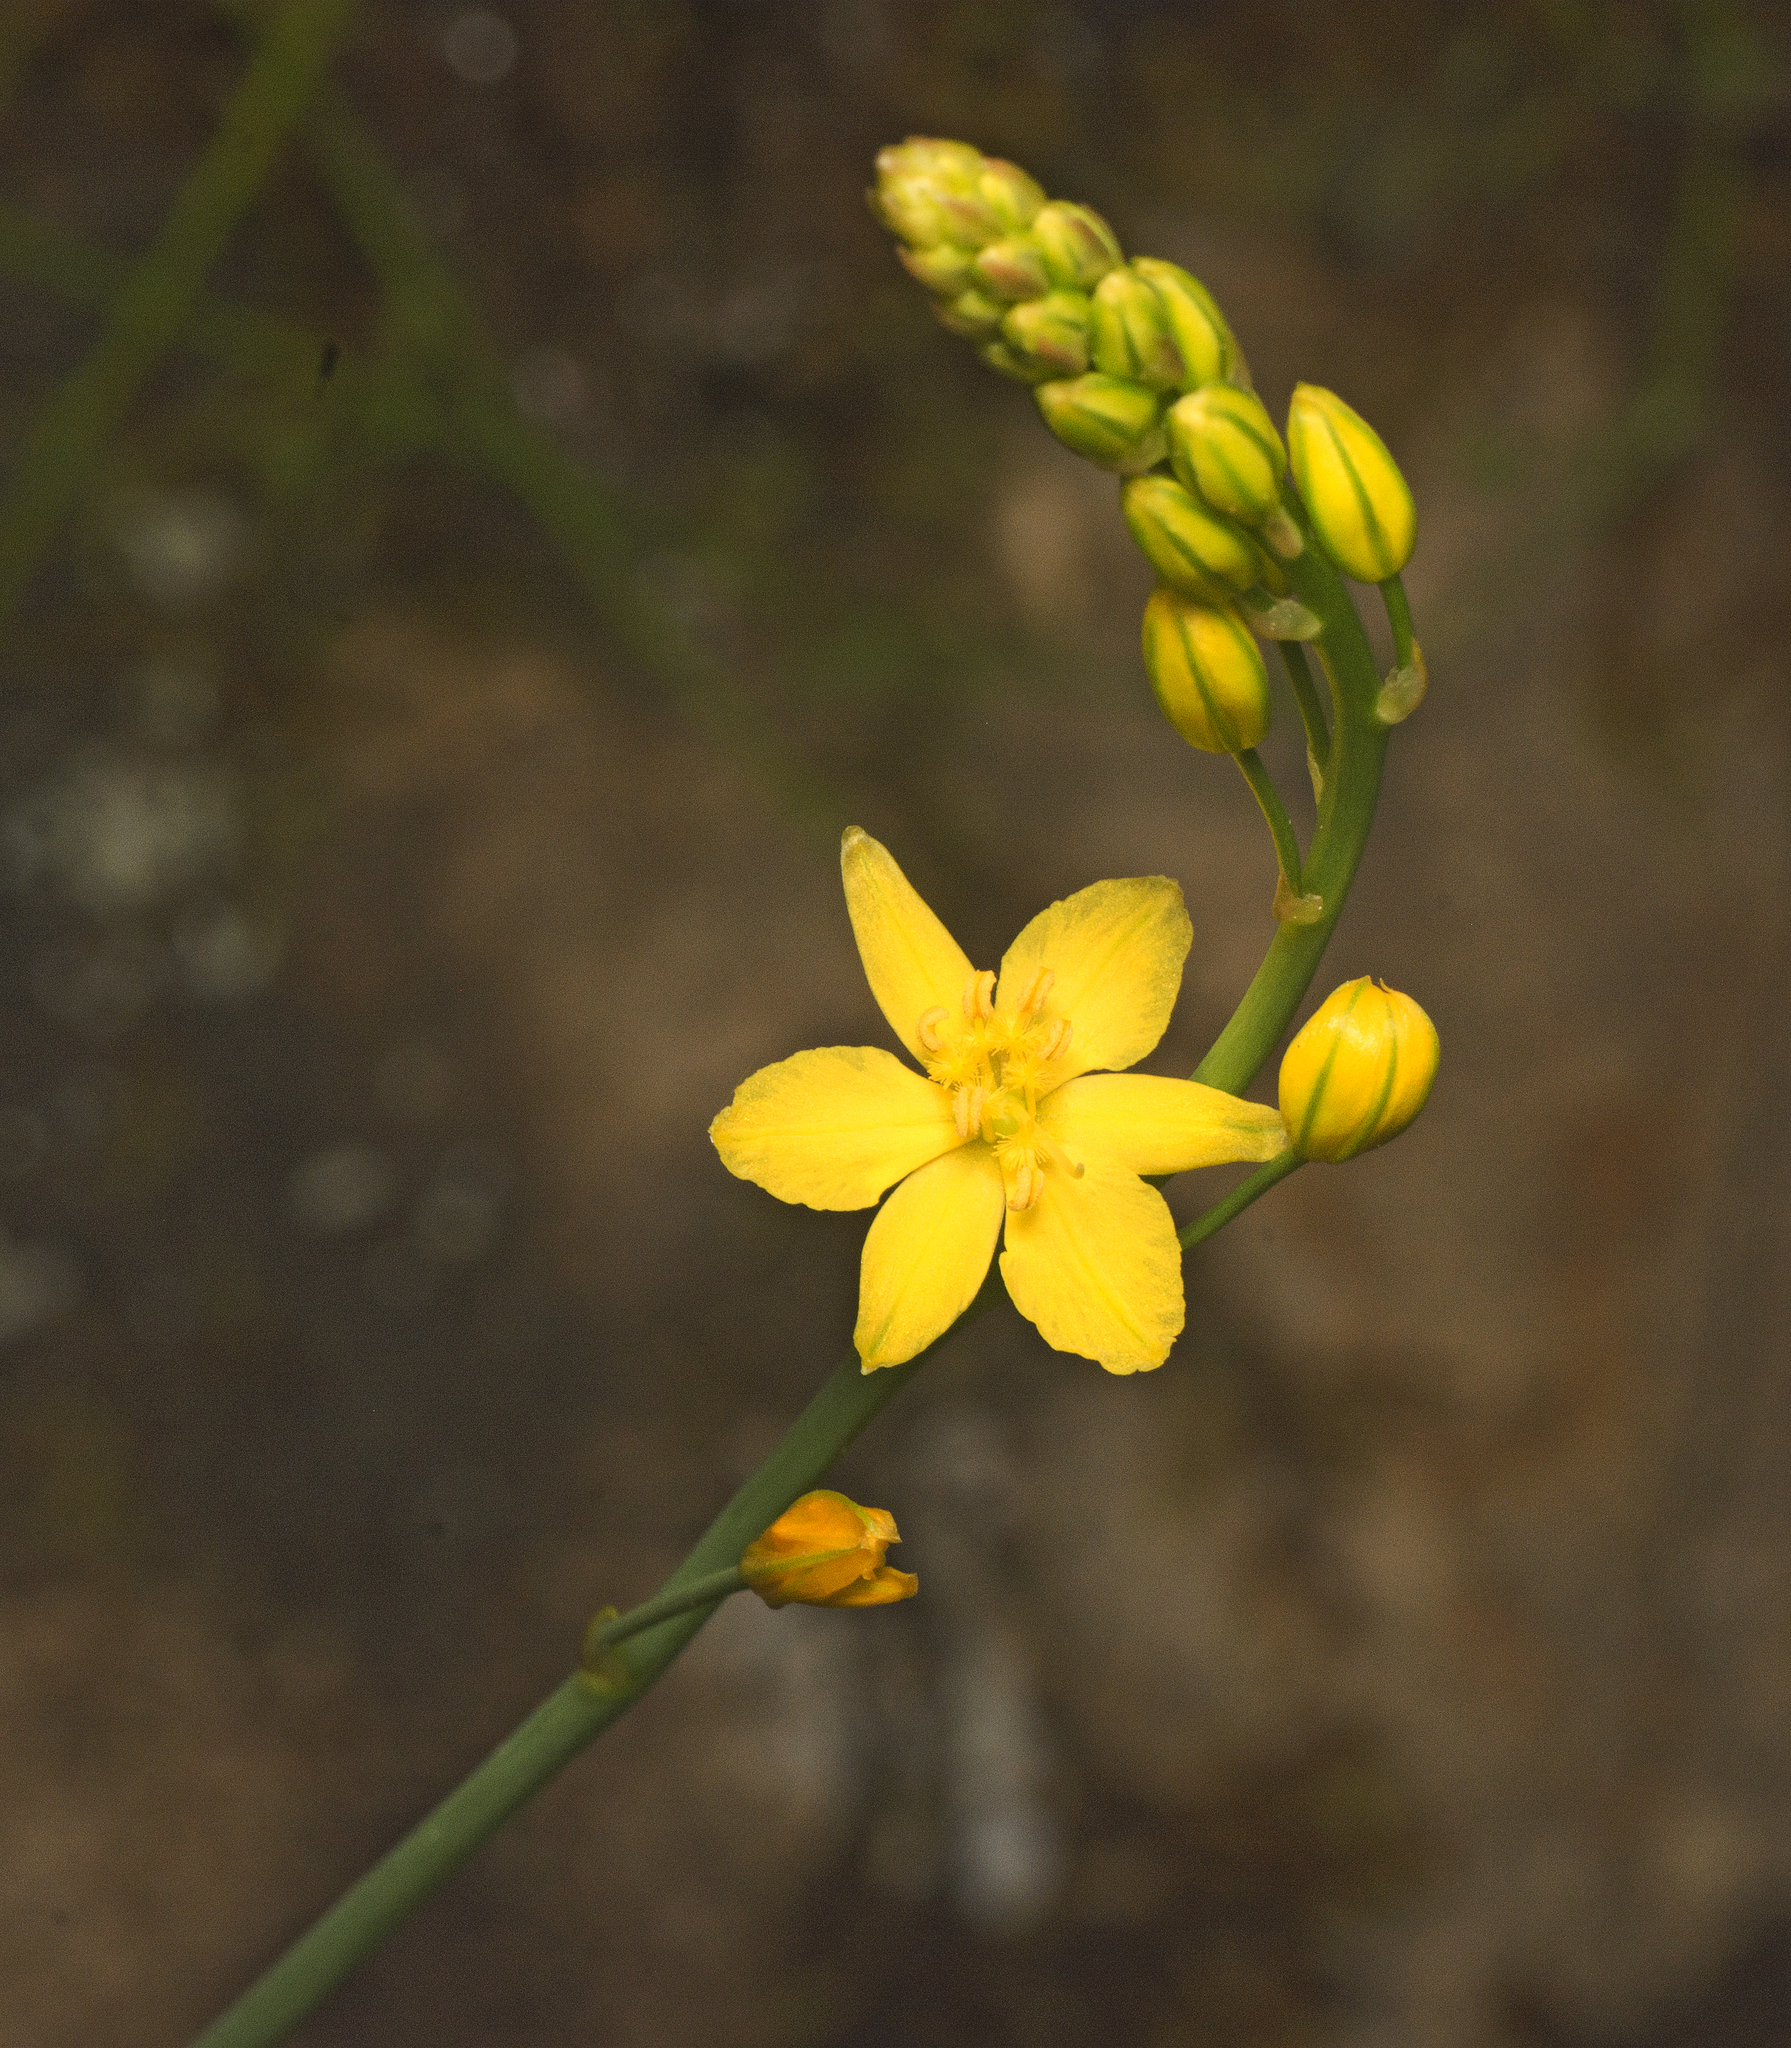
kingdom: Plantae
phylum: Tracheophyta
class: Liliopsida
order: Asparagales
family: Asphodelaceae
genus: Bulbine
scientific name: Bulbine bulbosa
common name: Golden-lily
